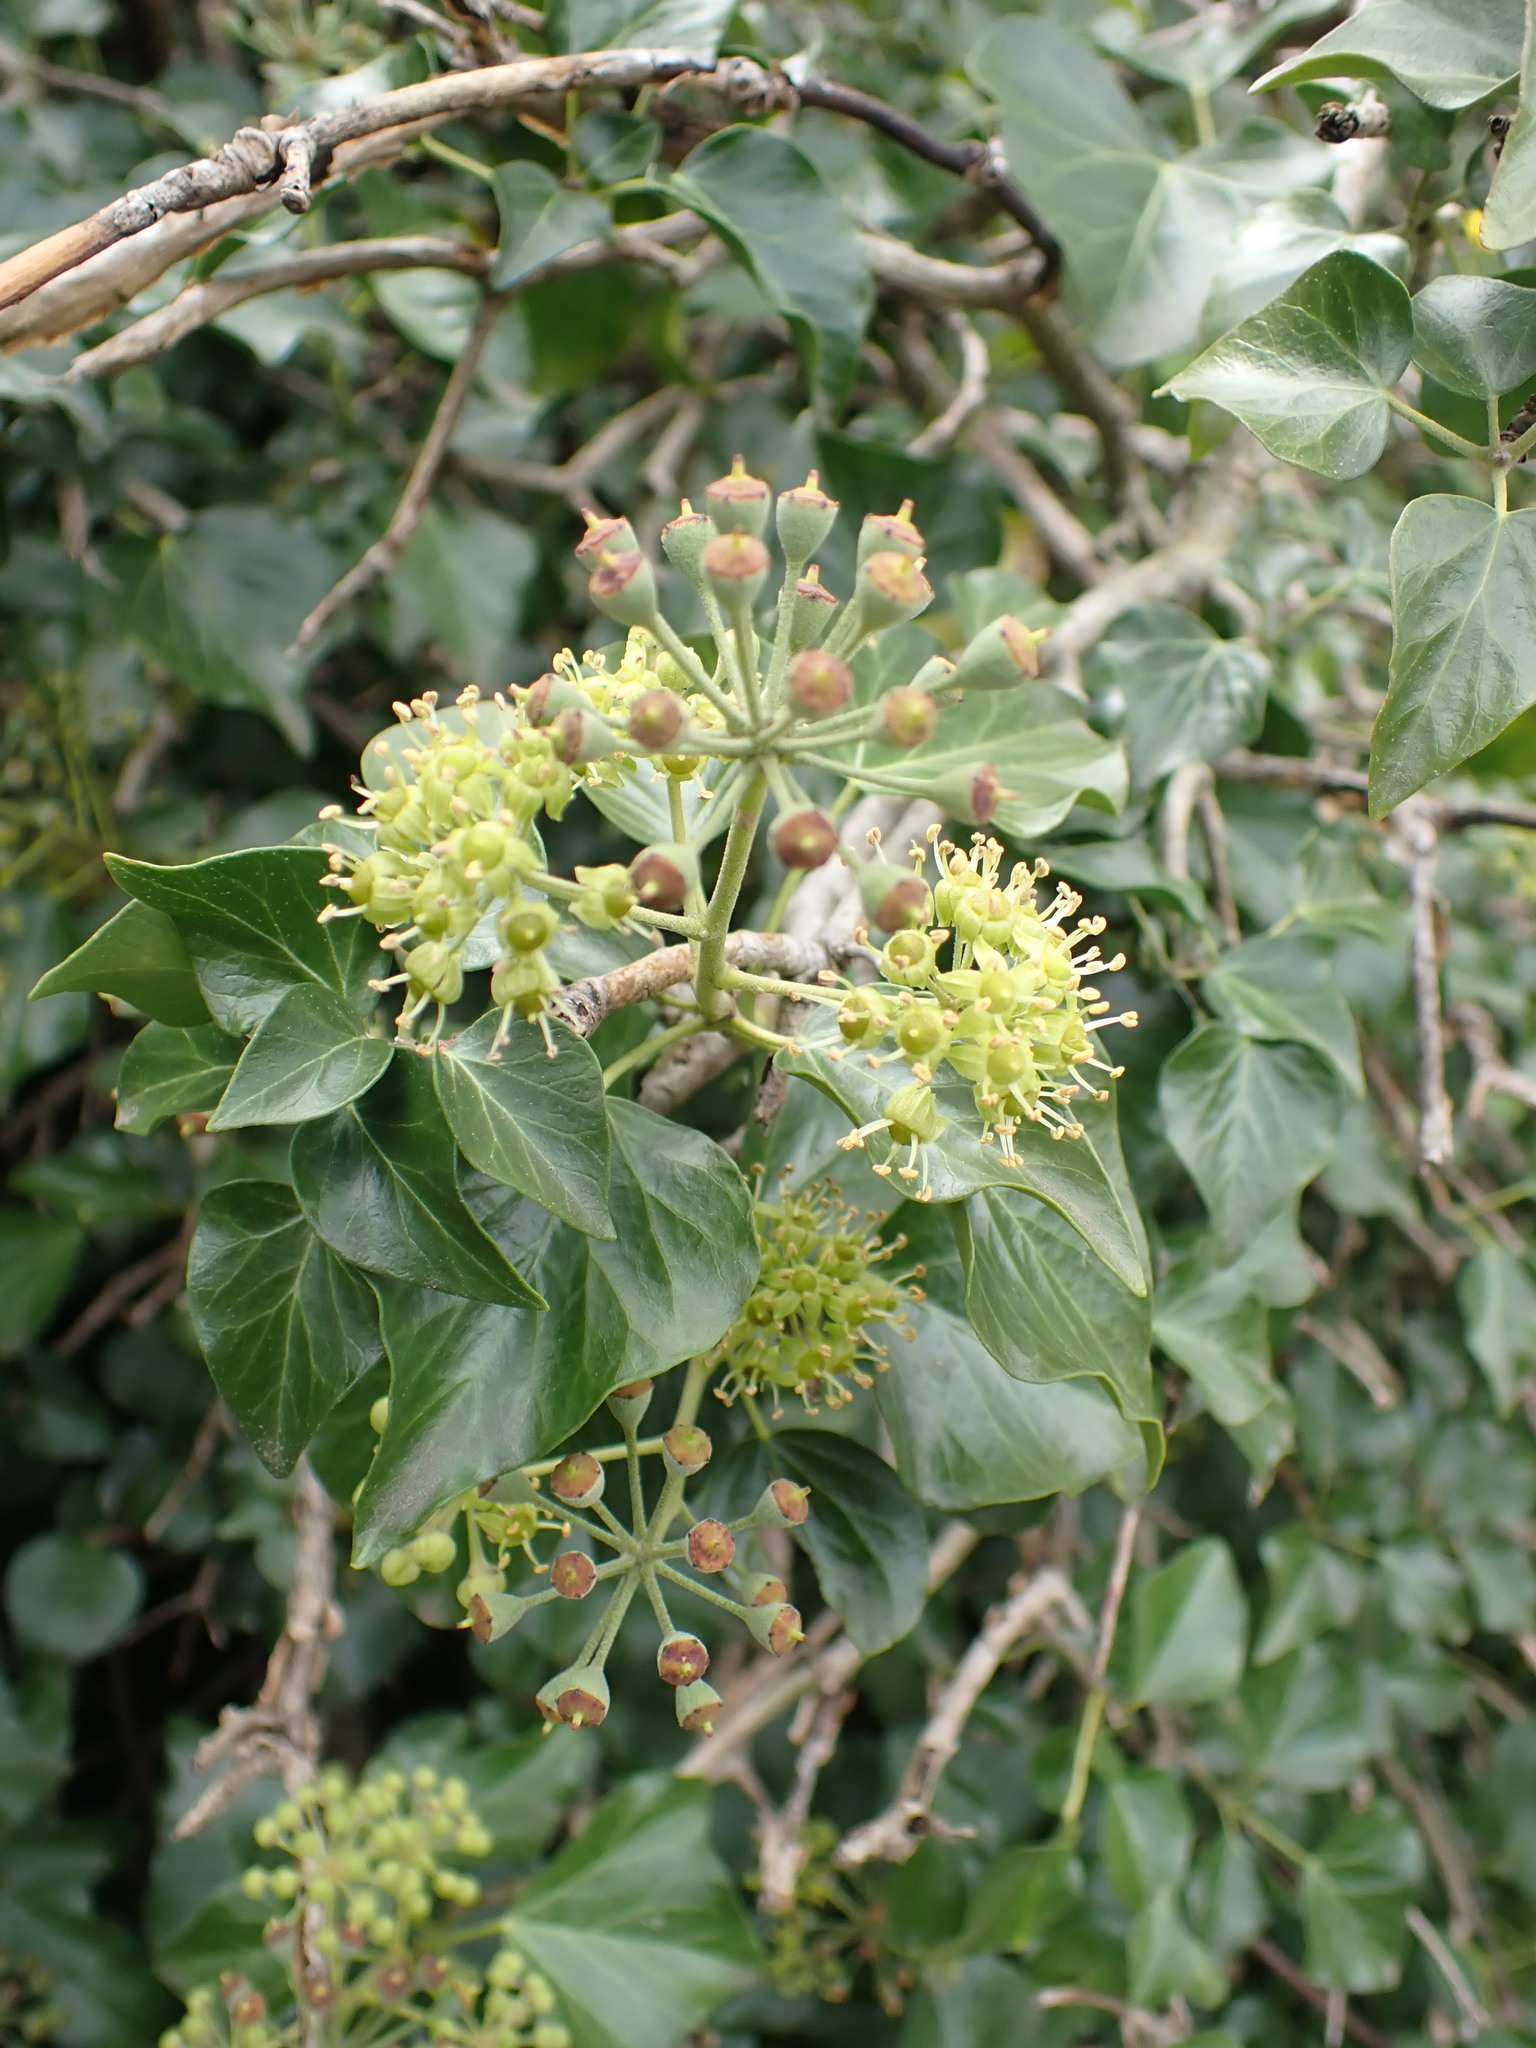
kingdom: Plantae
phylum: Tracheophyta
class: Magnoliopsida
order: Apiales
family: Araliaceae
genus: Hedera
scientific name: Hedera helix
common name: Ivy
